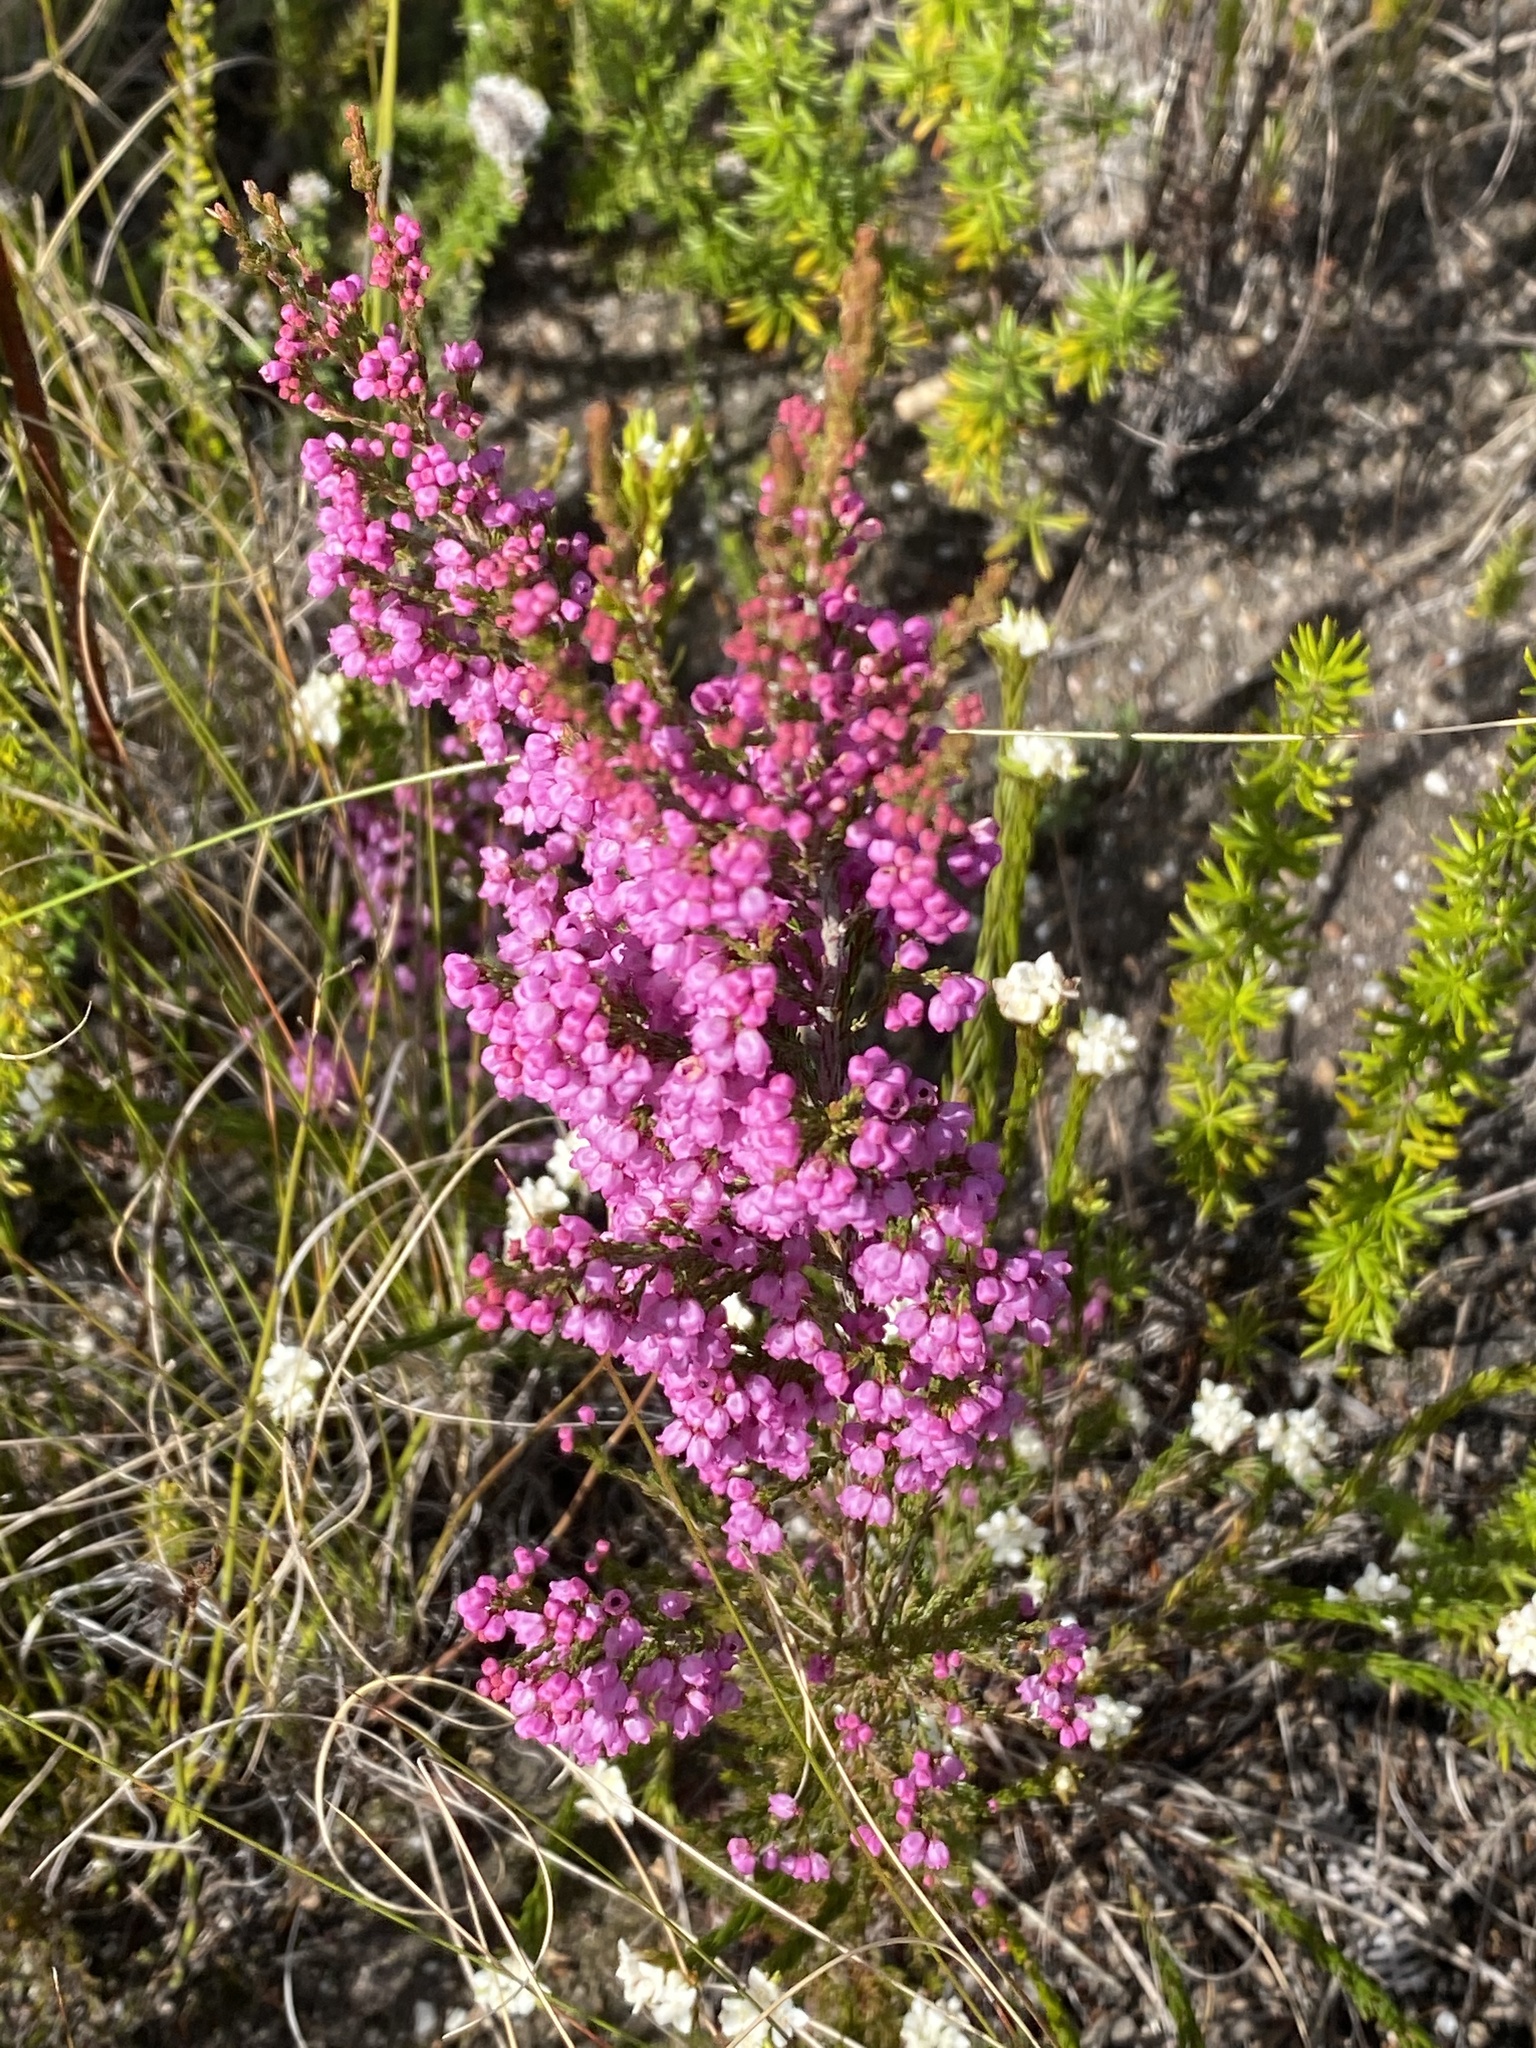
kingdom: Plantae
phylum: Tracheophyta
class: Magnoliopsida
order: Ericales
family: Ericaceae
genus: Erica
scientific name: Erica quadrangularis
